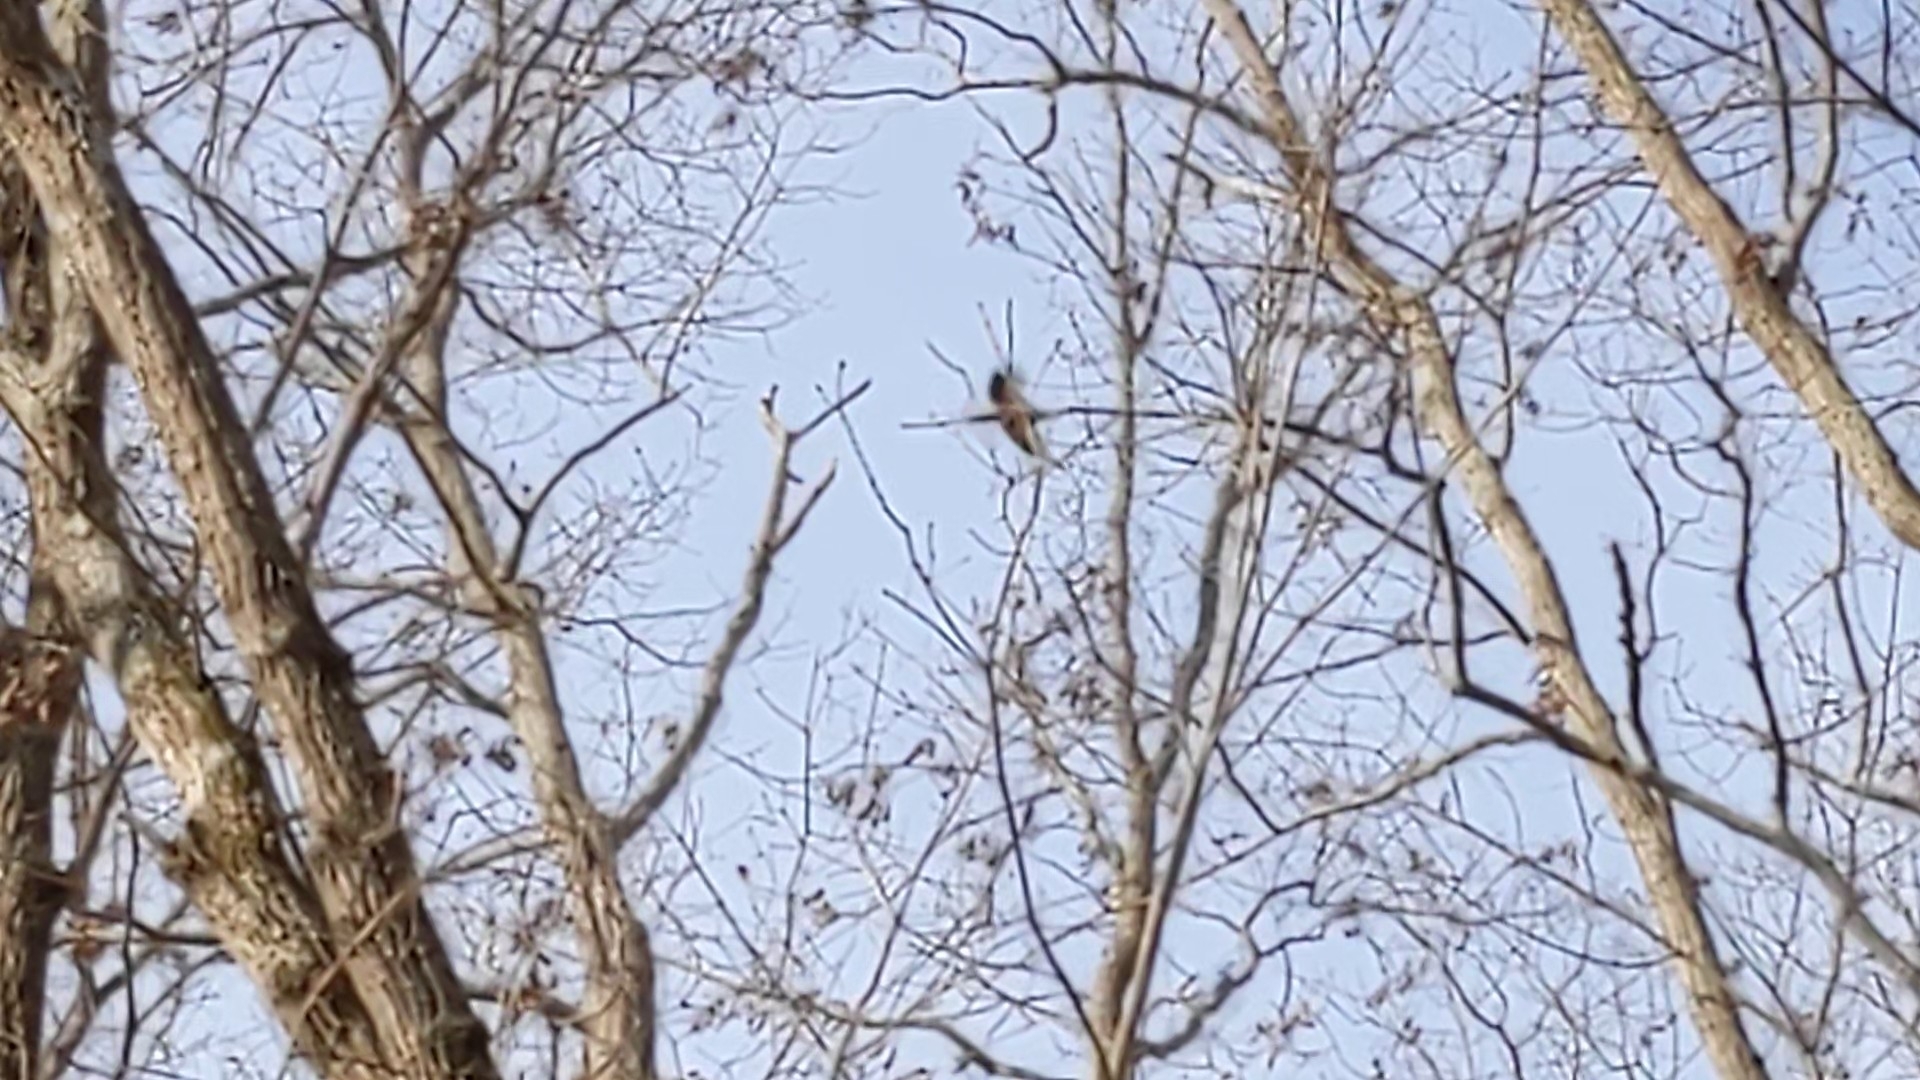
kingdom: Animalia
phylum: Chordata
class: Aves
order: Piciformes
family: Picidae
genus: Dryocopus
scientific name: Dryocopus pileatus
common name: Pileated woodpecker
